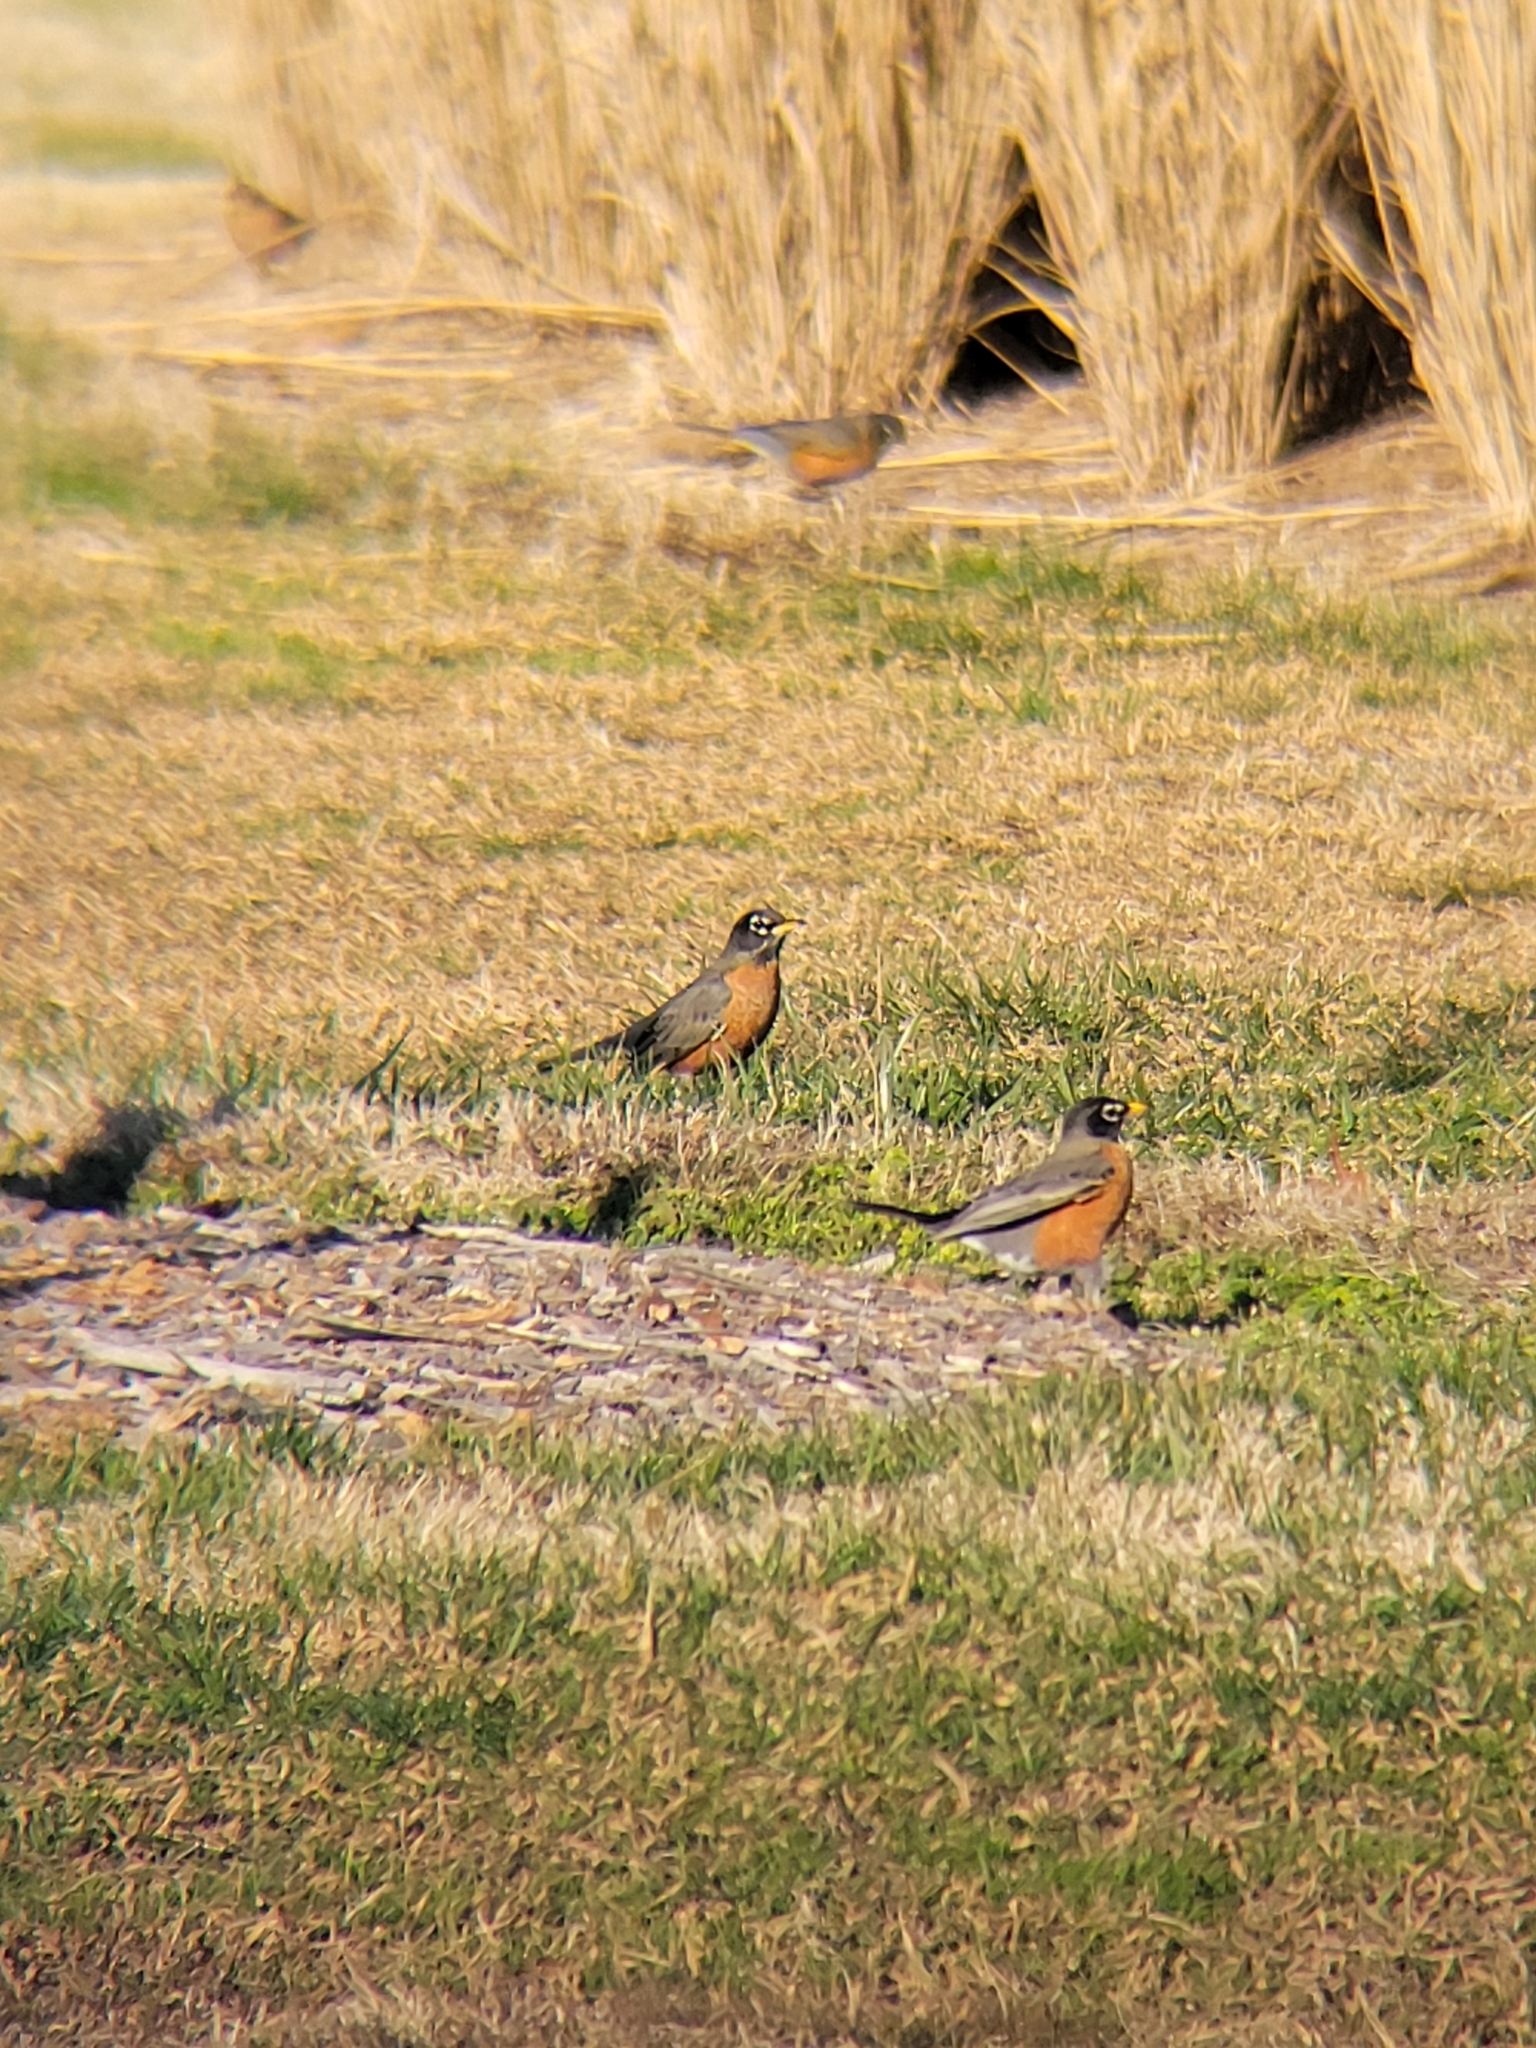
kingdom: Animalia
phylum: Chordata
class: Aves
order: Passeriformes
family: Turdidae
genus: Turdus
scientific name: Turdus migratorius
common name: American robin
